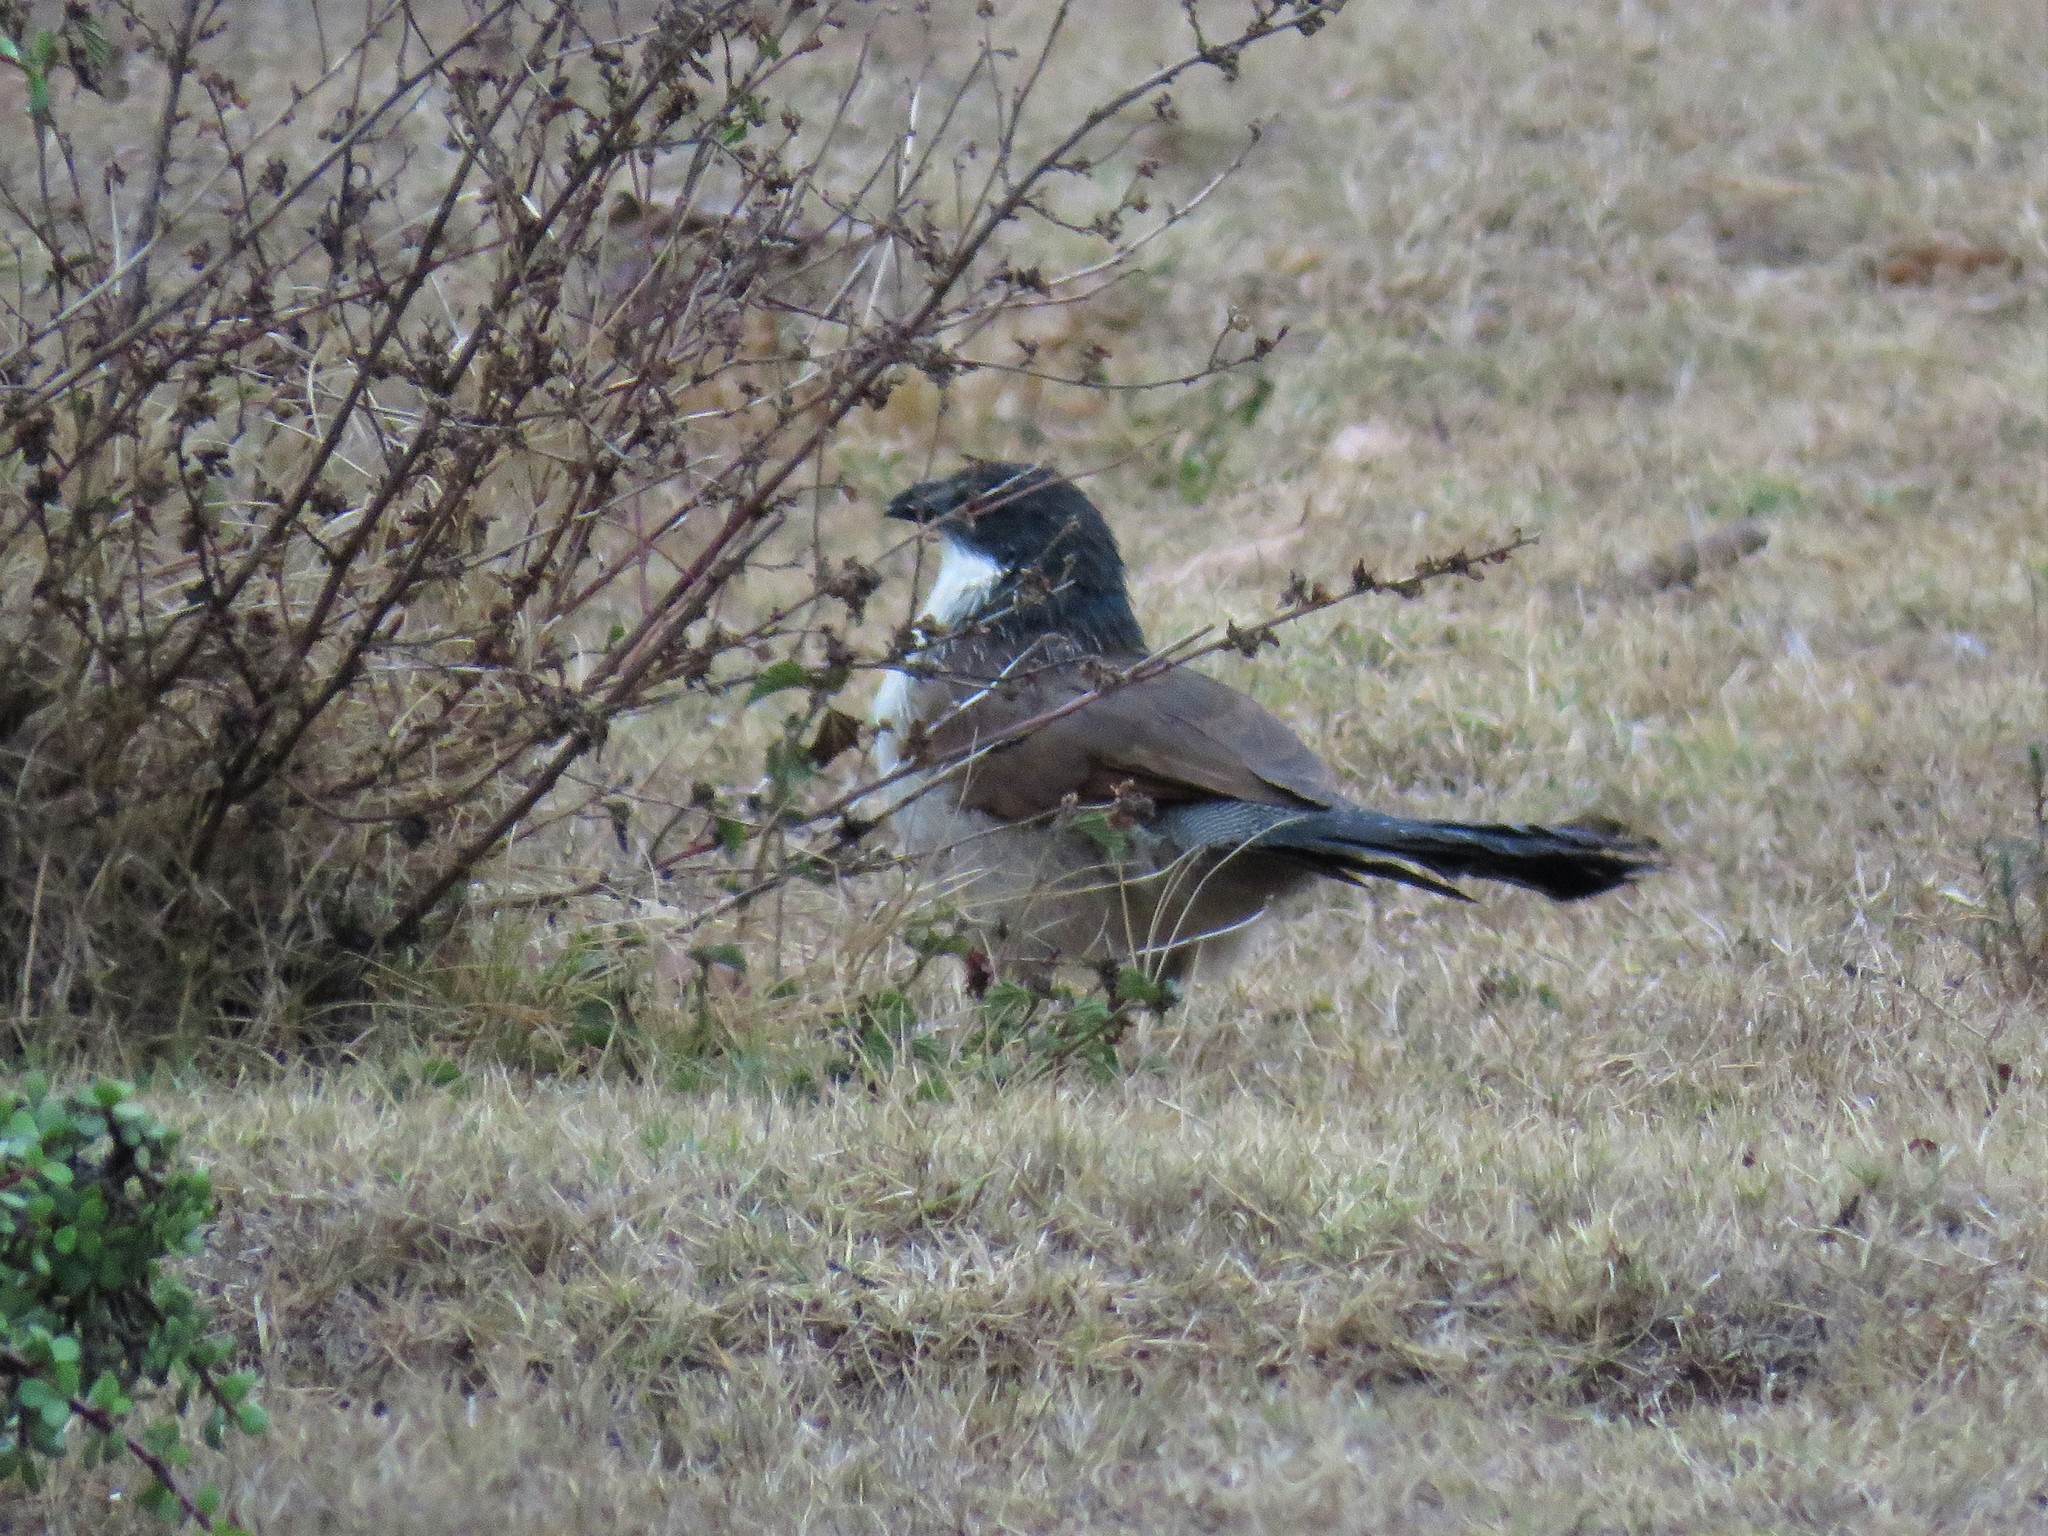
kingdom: Animalia
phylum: Chordata
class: Aves
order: Cuculiformes
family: Cuculidae
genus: Centropus
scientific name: Centropus superciliosus
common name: White-browed coucal
